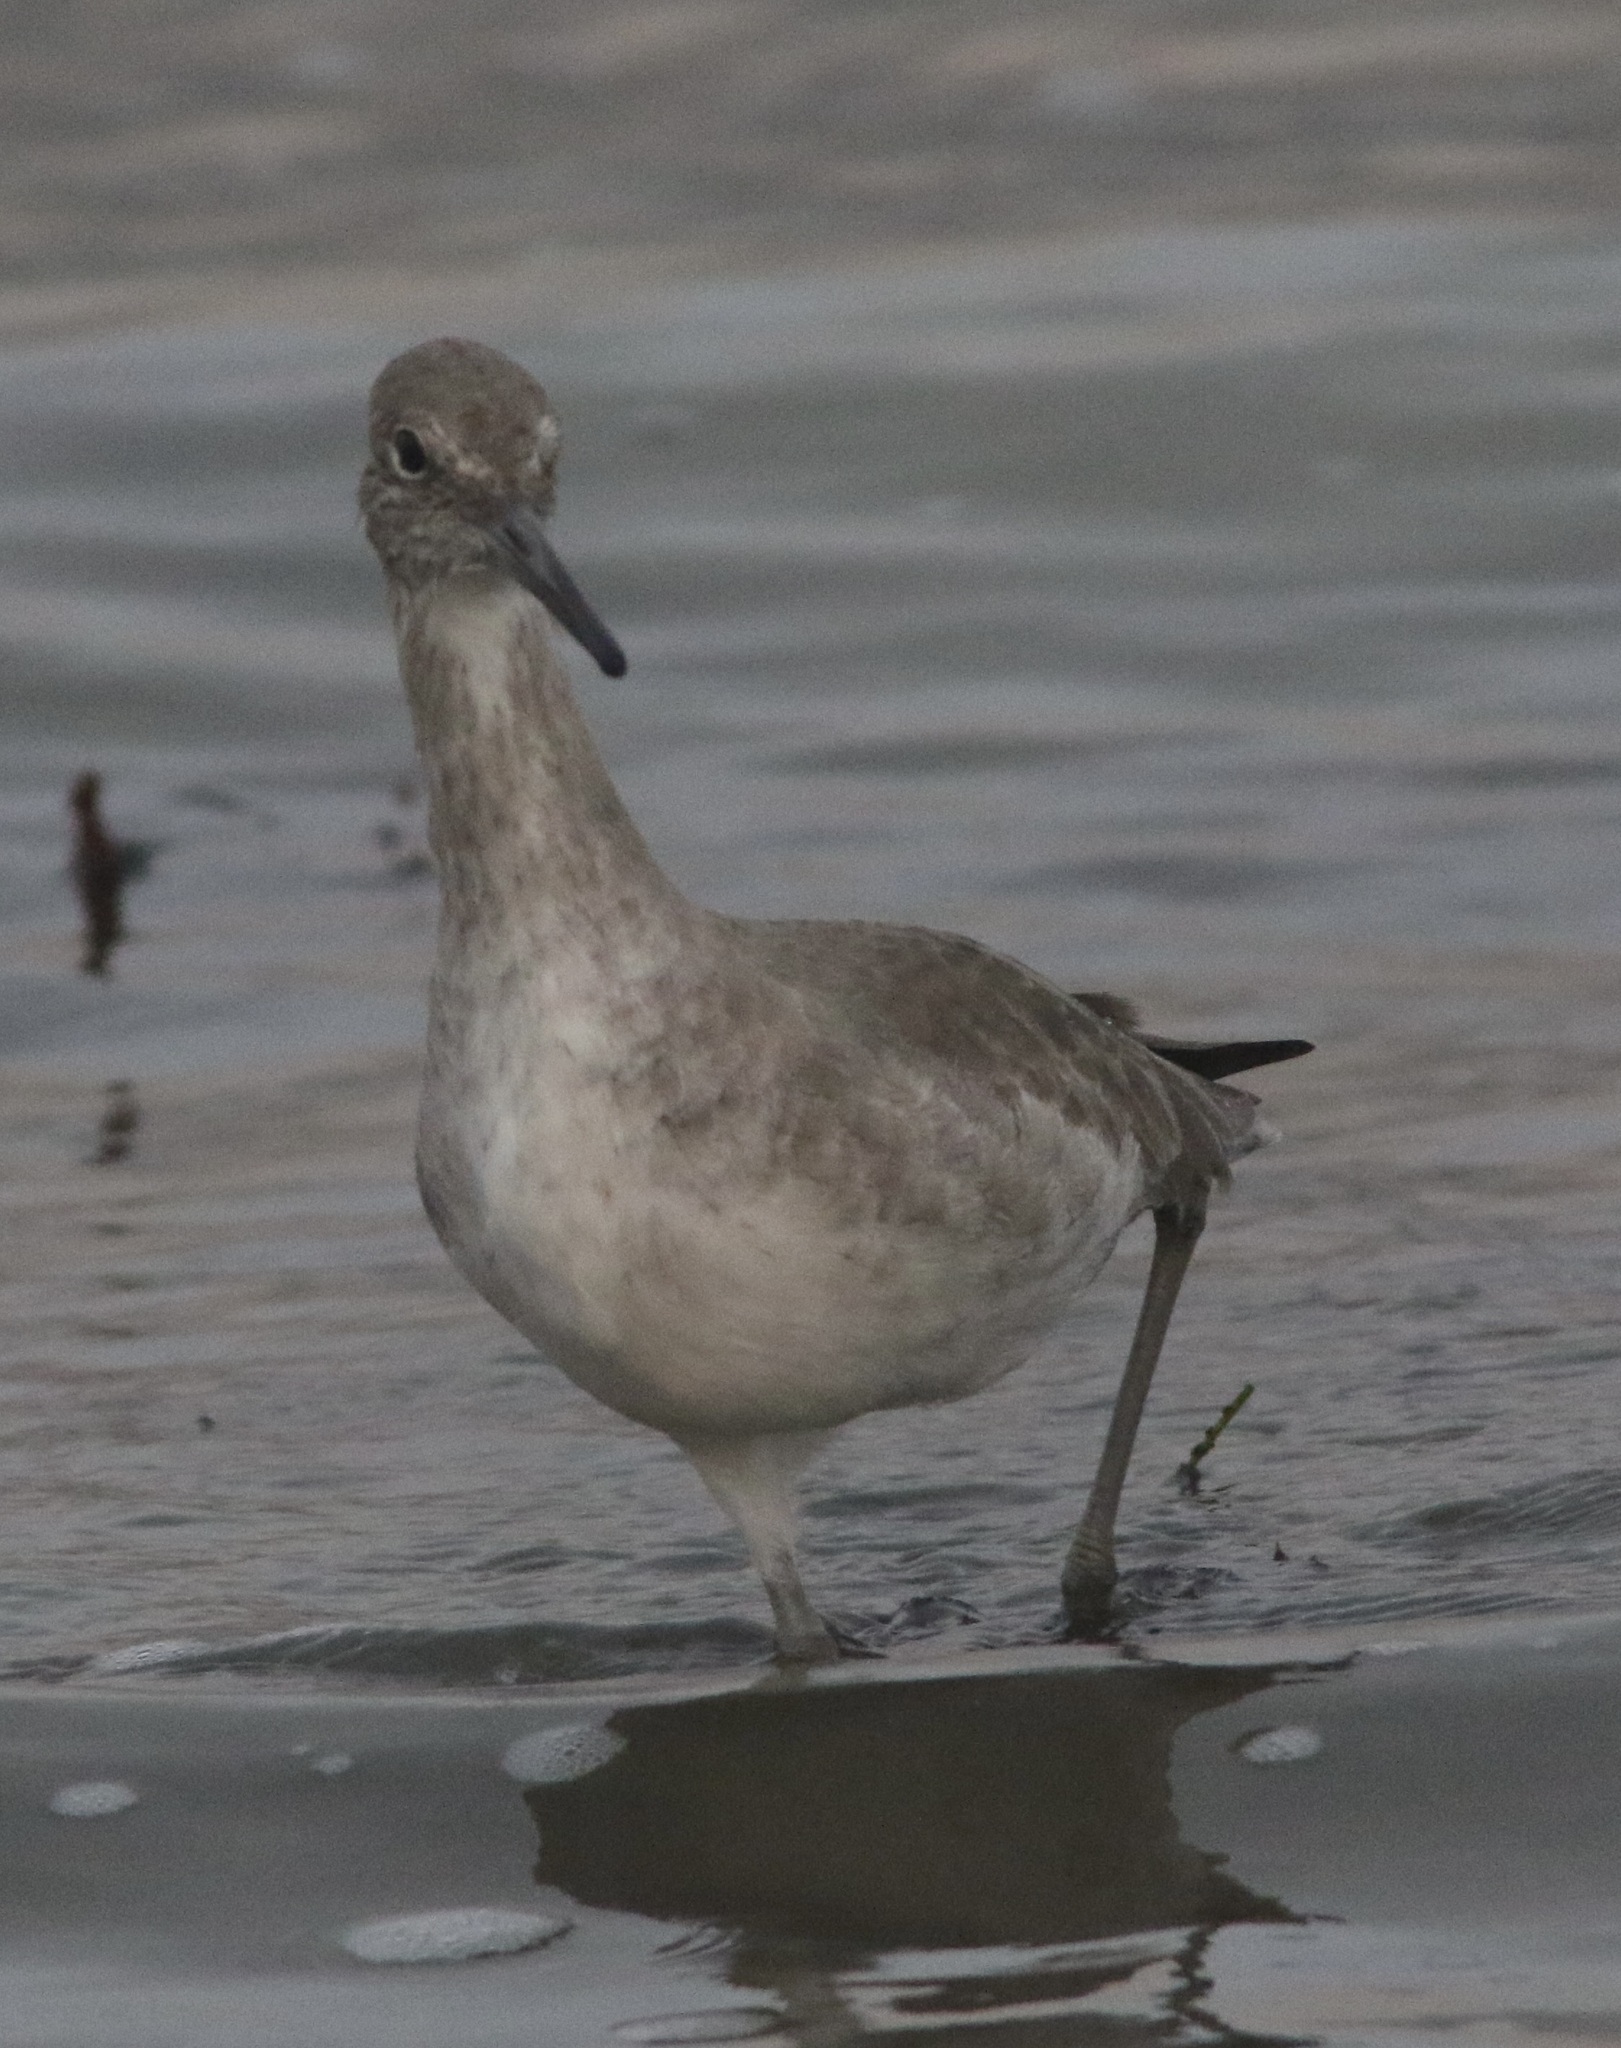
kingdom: Animalia
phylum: Chordata
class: Aves
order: Charadriiformes
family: Scolopacidae
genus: Tringa
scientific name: Tringa semipalmata
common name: Willet
